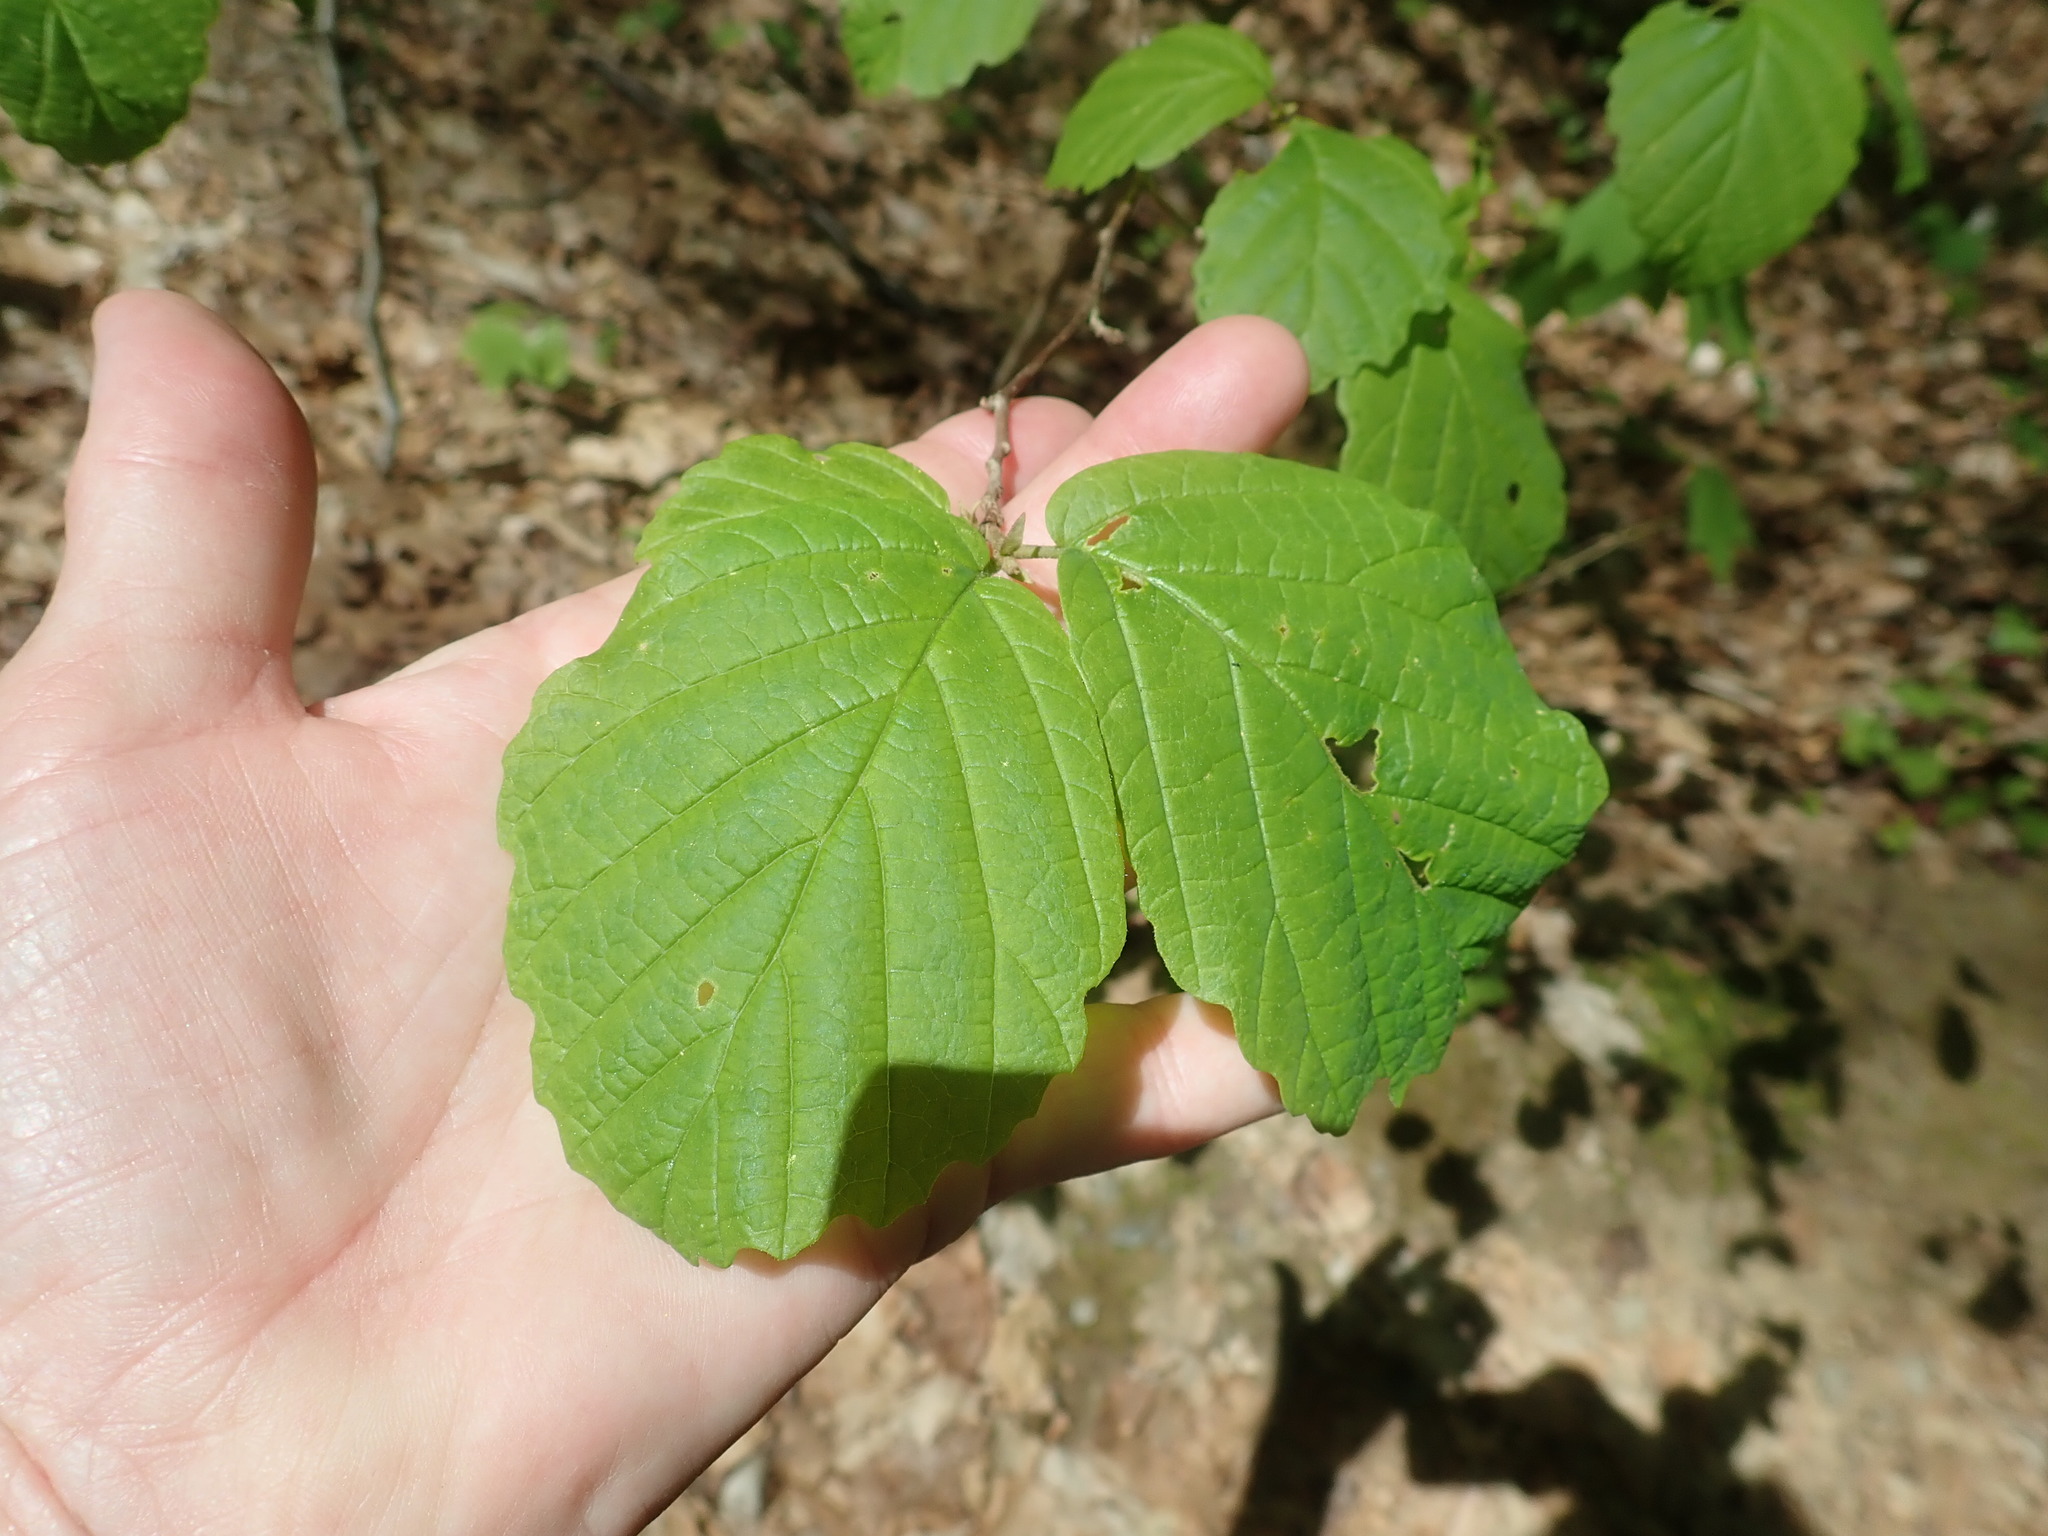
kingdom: Plantae
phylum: Tracheophyta
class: Magnoliopsida
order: Saxifragales
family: Hamamelidaceae
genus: Hamamelis
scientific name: Hamamelis virginiana
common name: Witch-hazel
